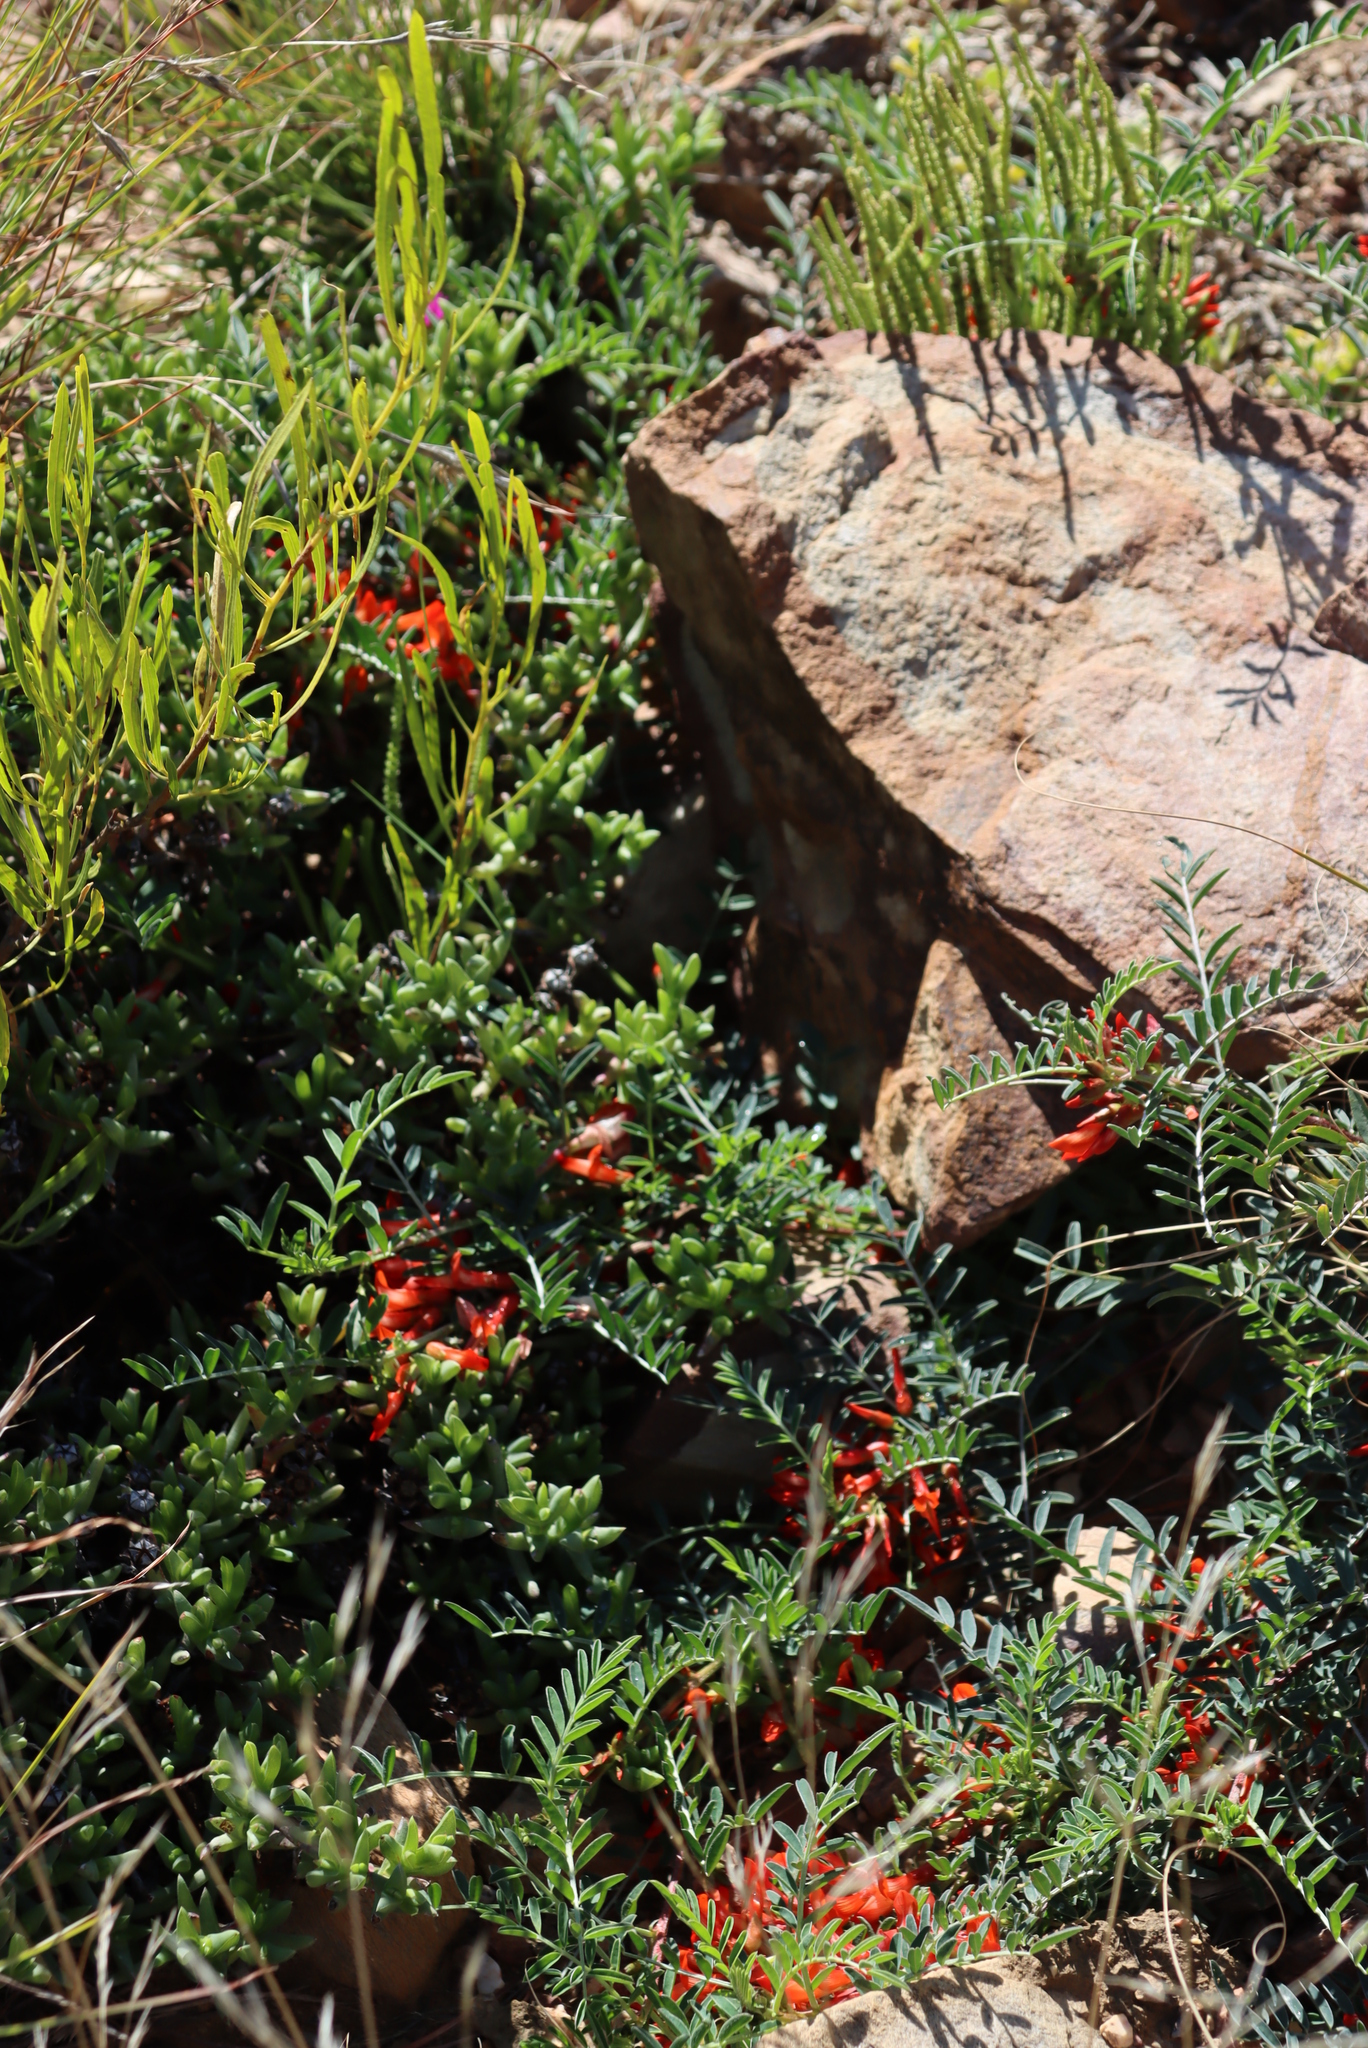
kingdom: Plantae
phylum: Tracheophyta
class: Magnoliopsida
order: Fabales
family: Fabaceae
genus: Lessertia
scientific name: Lessertia frutescens
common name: Balloon-pea
